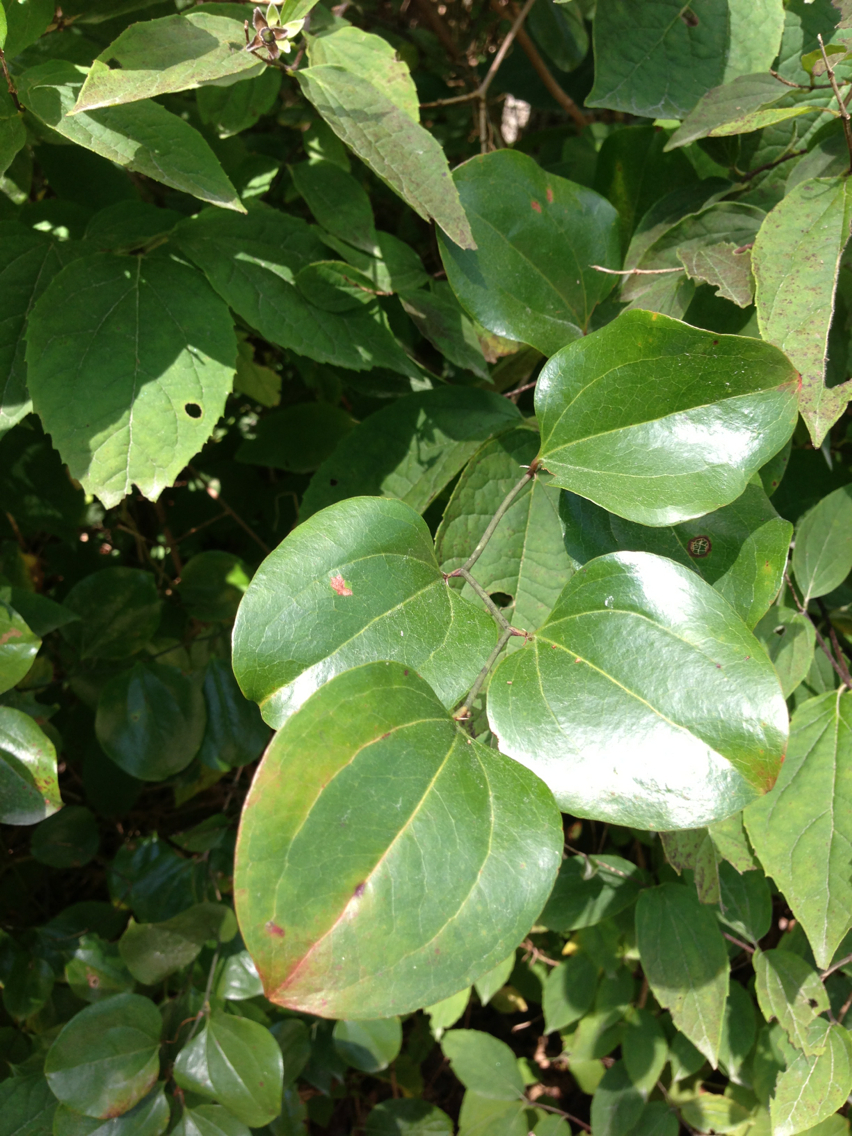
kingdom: Plantae
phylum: Tracheophyta
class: Liliopsida
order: Liliales
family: Smilacaceae
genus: Smilax
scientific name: Smilax rotundifolia
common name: Bullbriar
